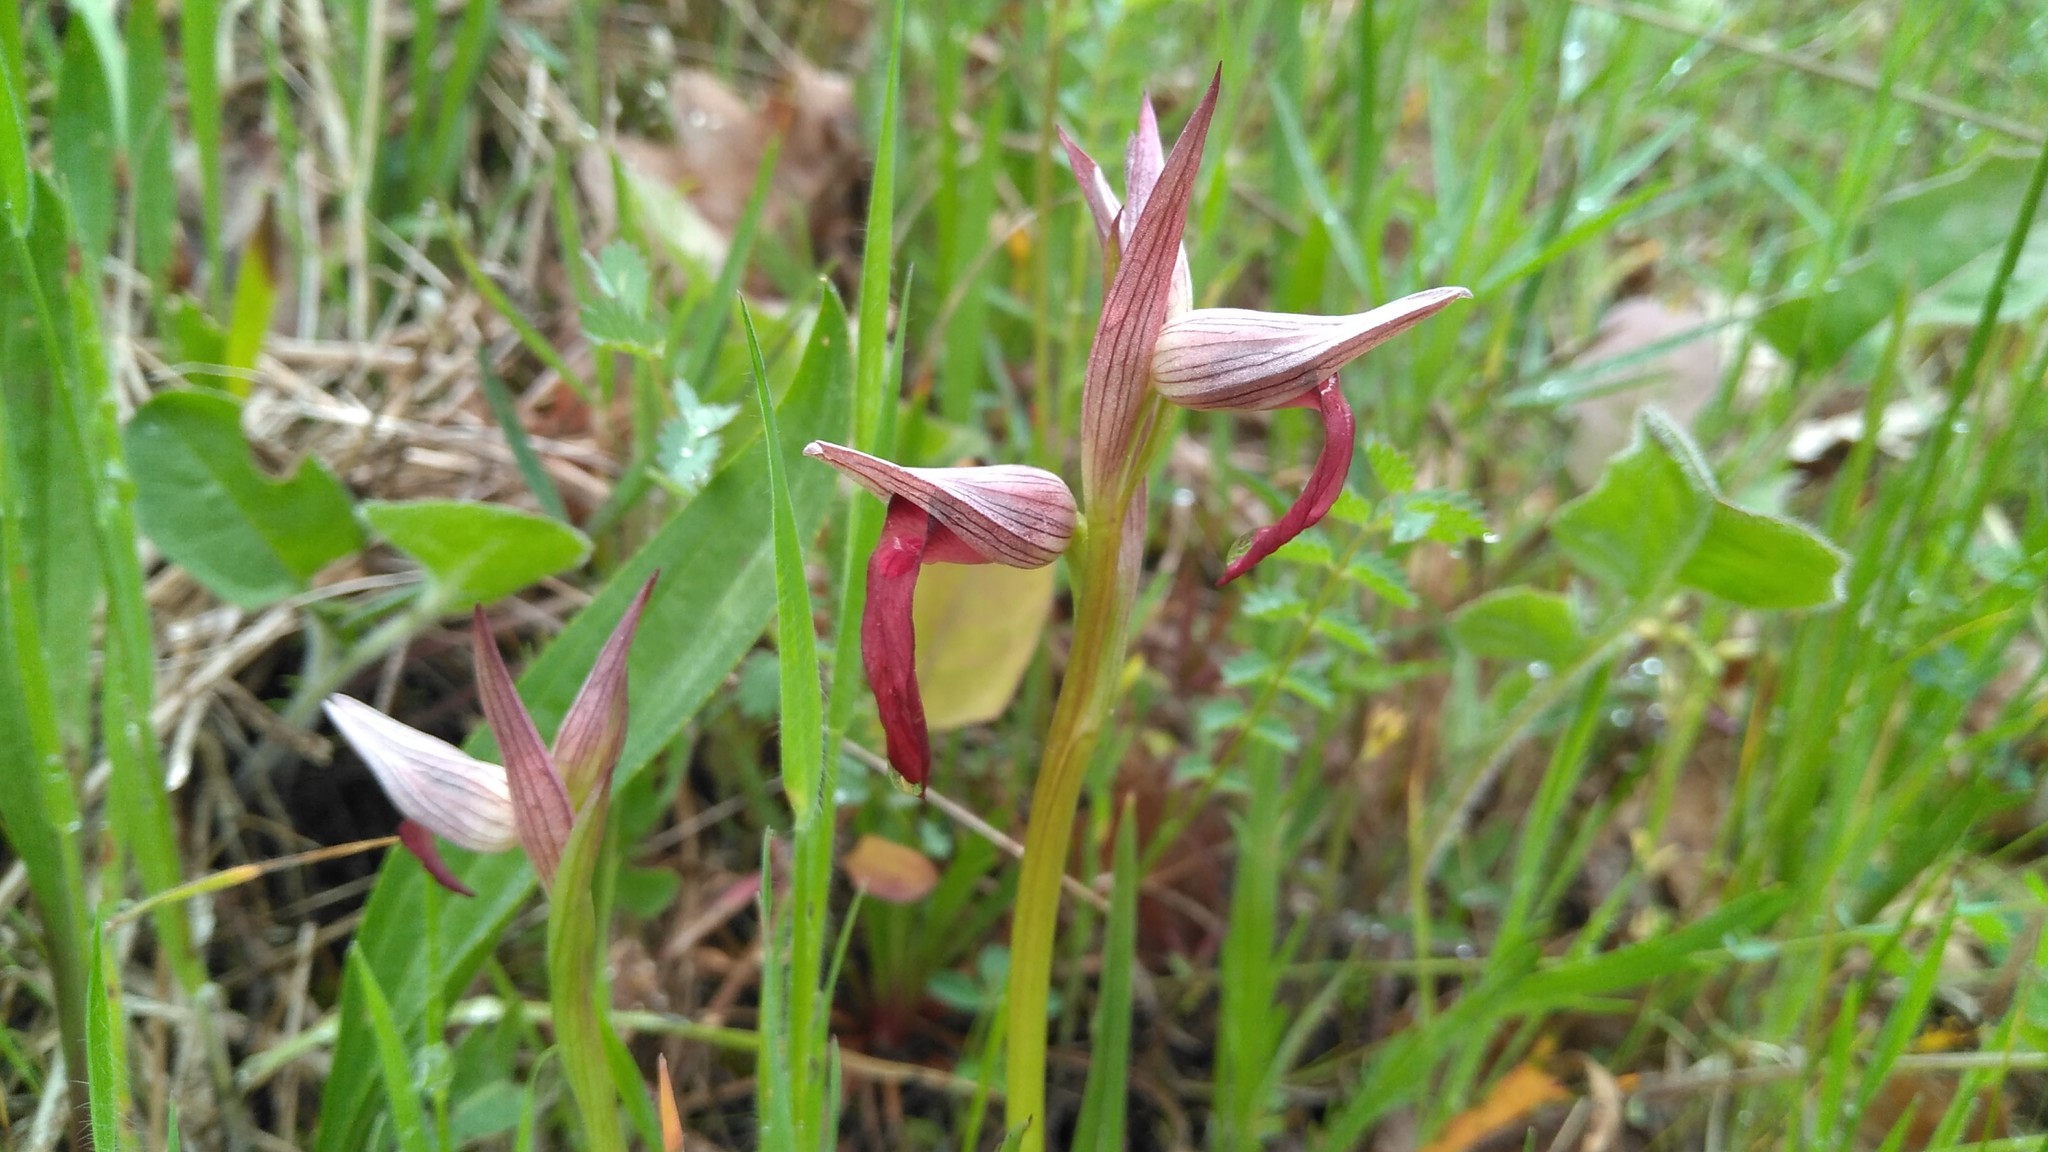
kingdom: Plantae
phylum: Tracheophyta
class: Liliopsida
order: Asparagales
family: Orchidaceae
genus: Serapias
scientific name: Serapias lingua
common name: Tongue-orchid
